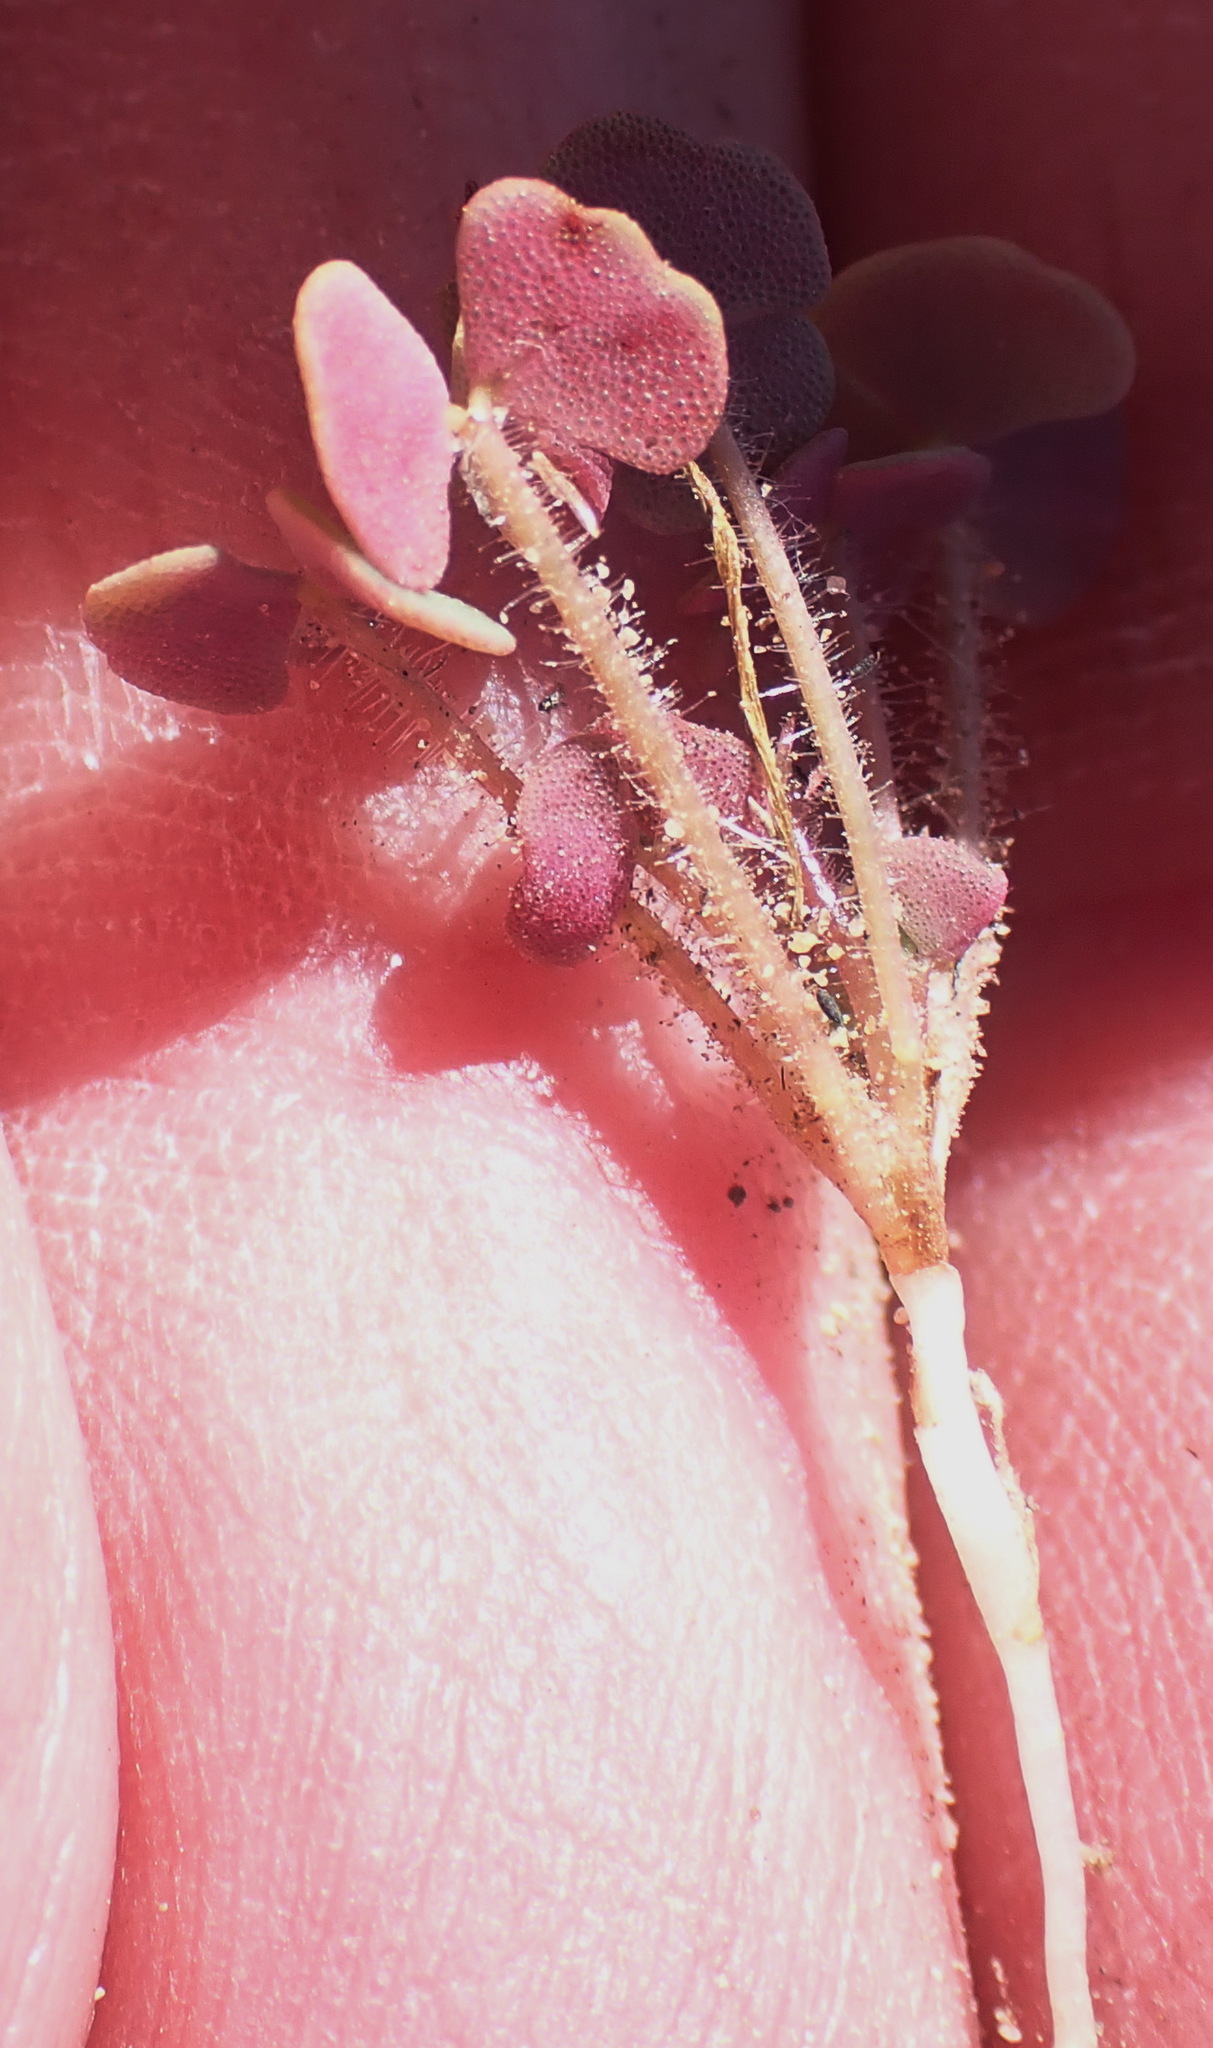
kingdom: Plantae
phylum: Tracheophyta
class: Magnoliopsida
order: Oxalidales
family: Oxalidaceae
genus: Oxalis
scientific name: Oxalis punctata
